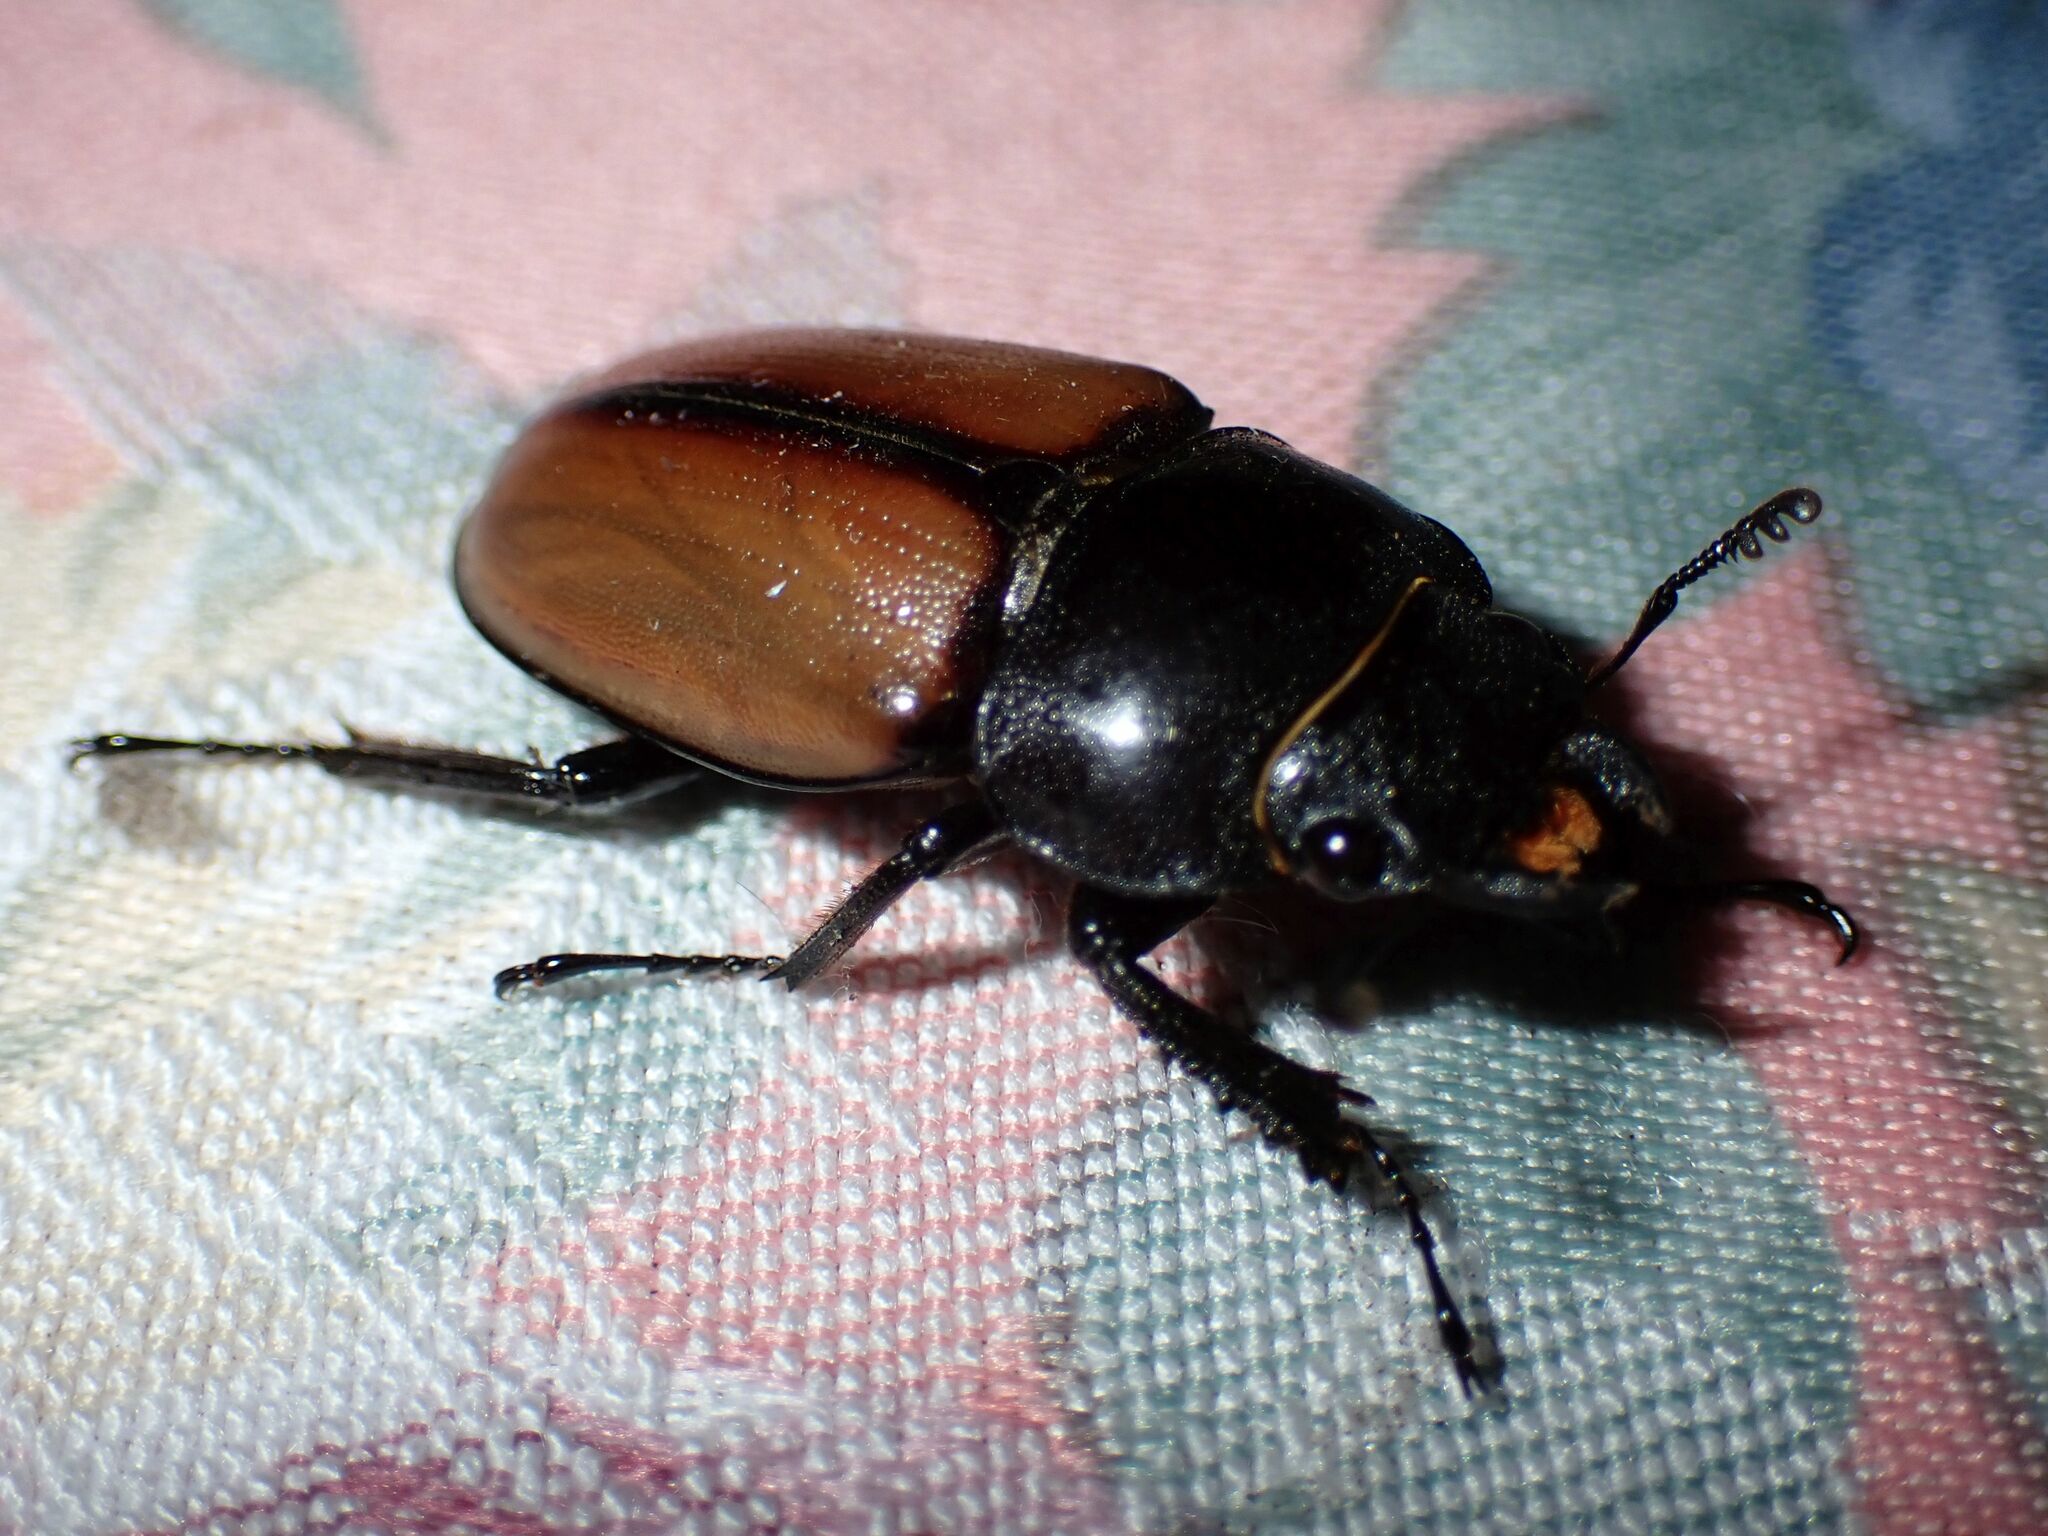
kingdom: Animalia
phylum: Arthropoda
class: Insecta
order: Coleoptera
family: Lucanidae
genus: Prosopocoilus
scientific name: Prosopocoilus lafertei
